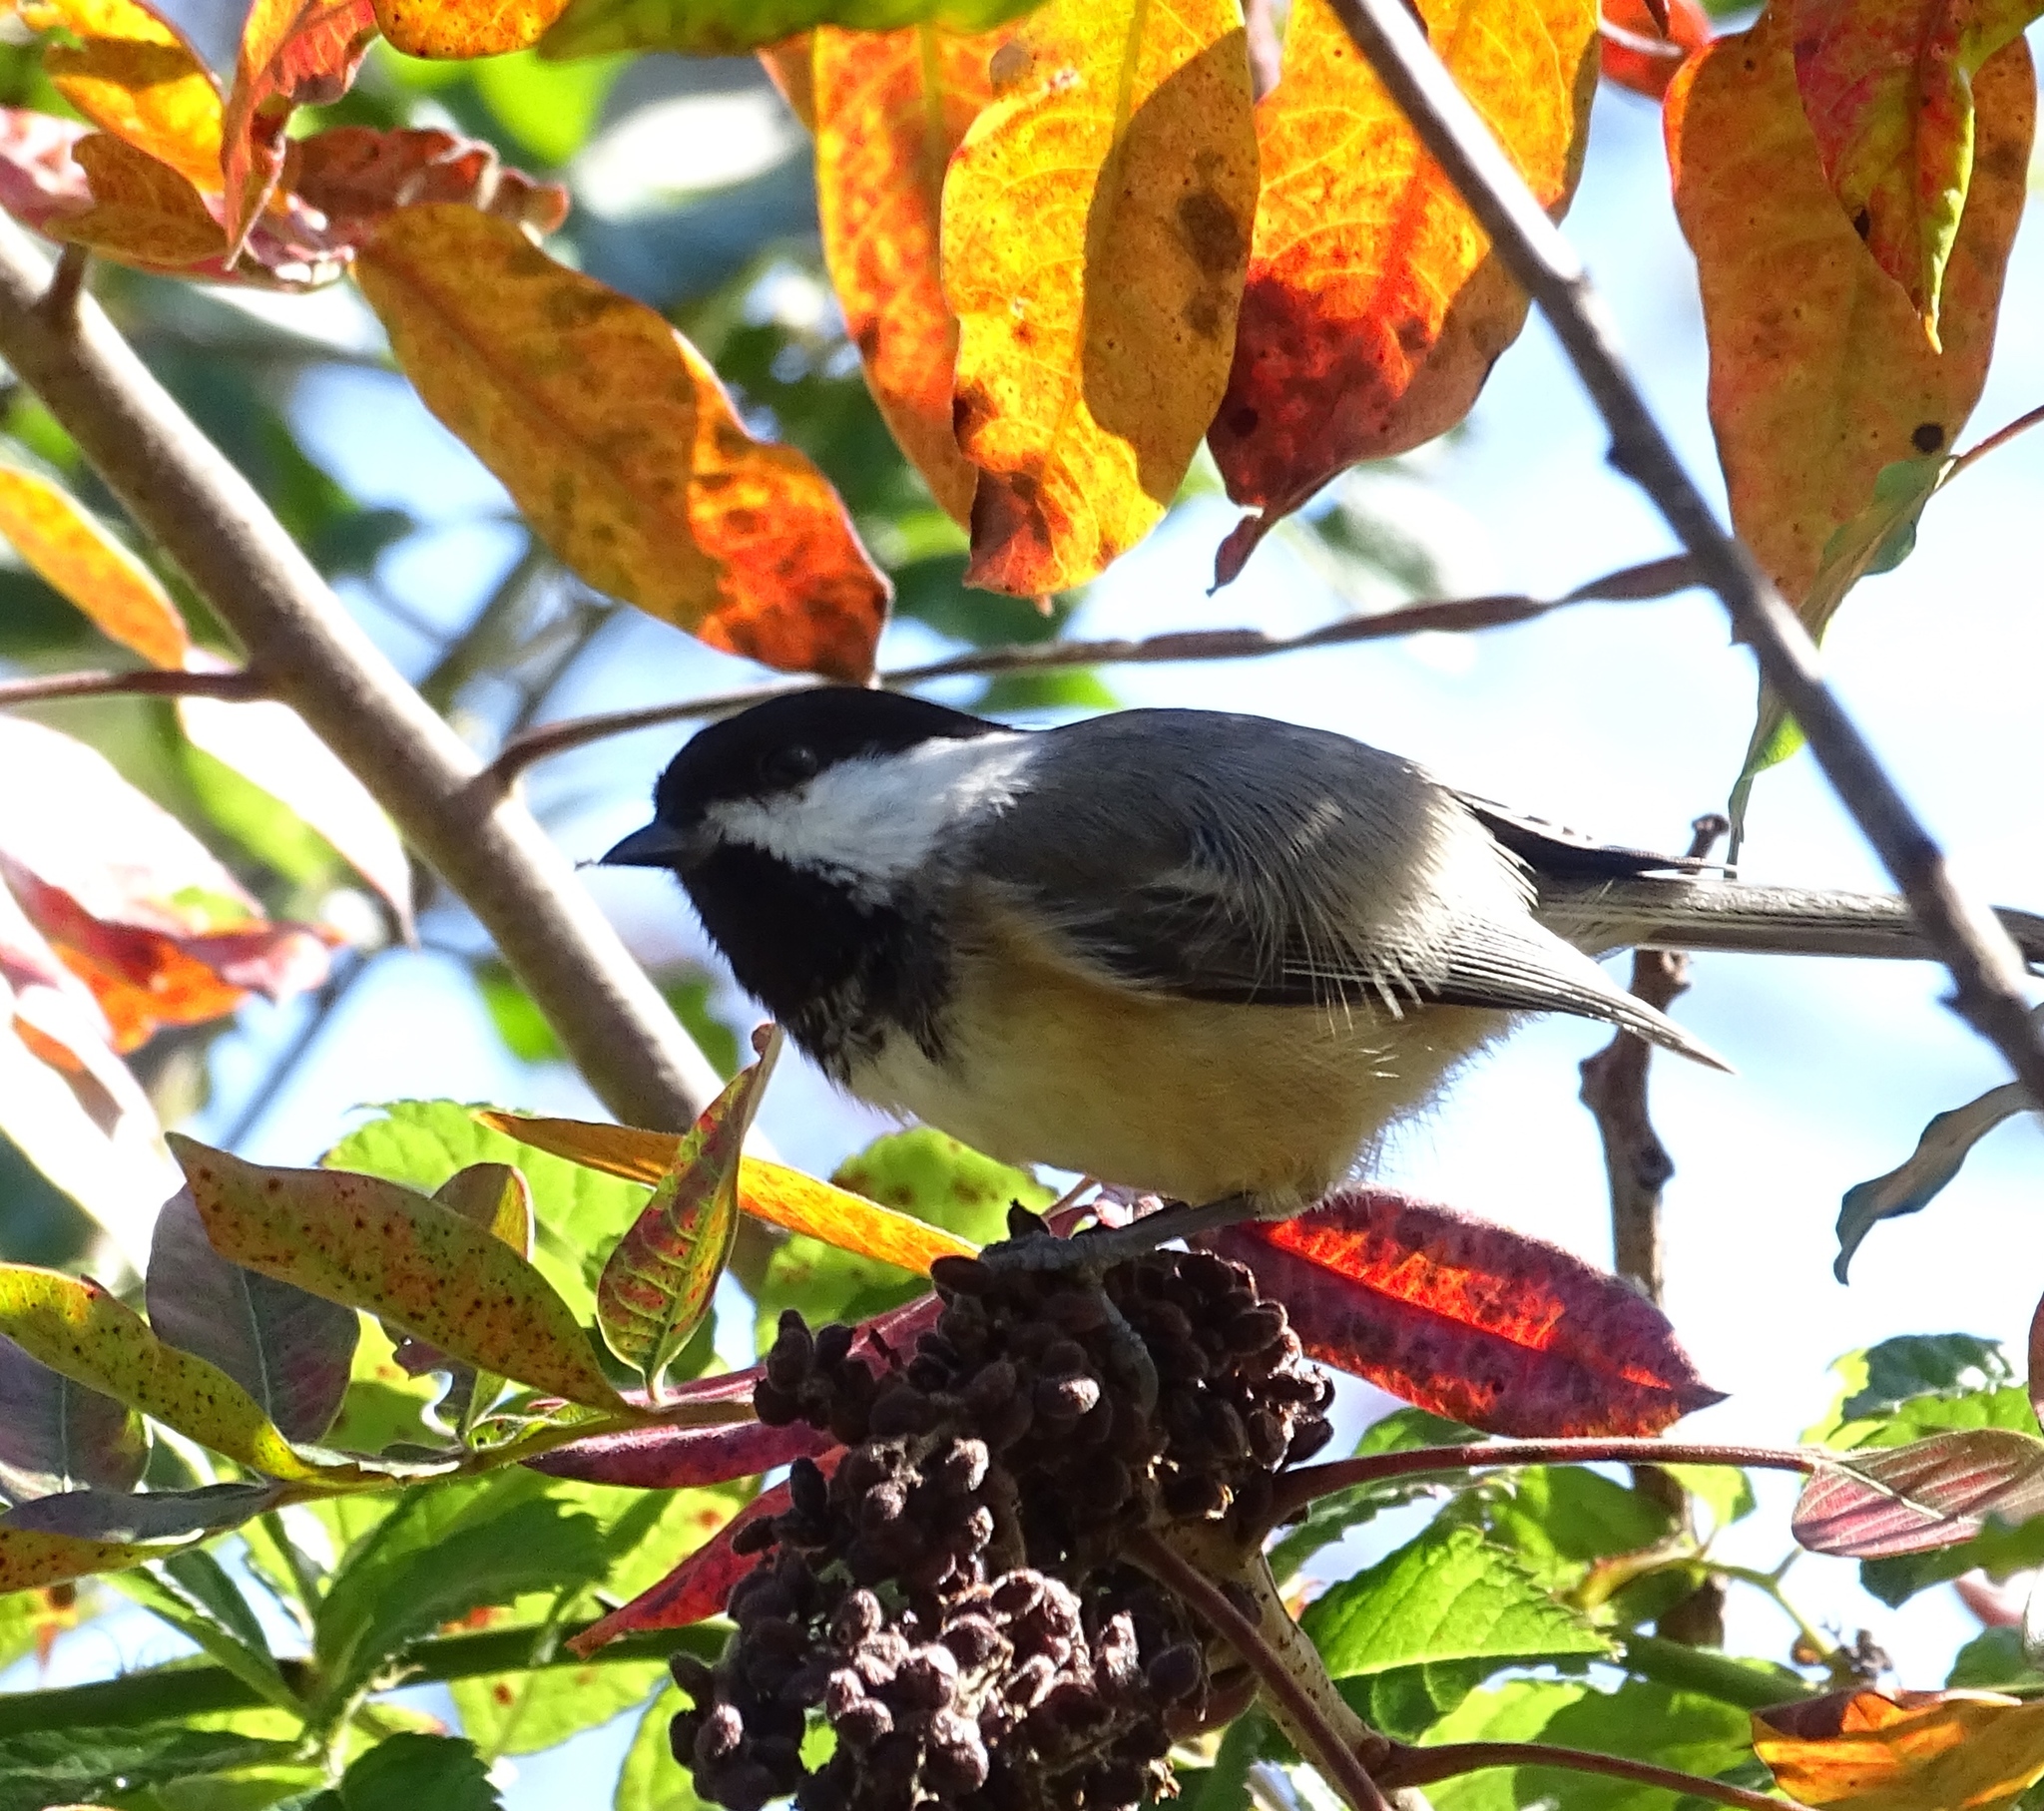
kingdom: Animalia
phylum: Chordata
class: Aves
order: Passeriformes
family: Paridae
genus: Poecile
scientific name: Poecile atricapillus
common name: Black-capped chickadee
